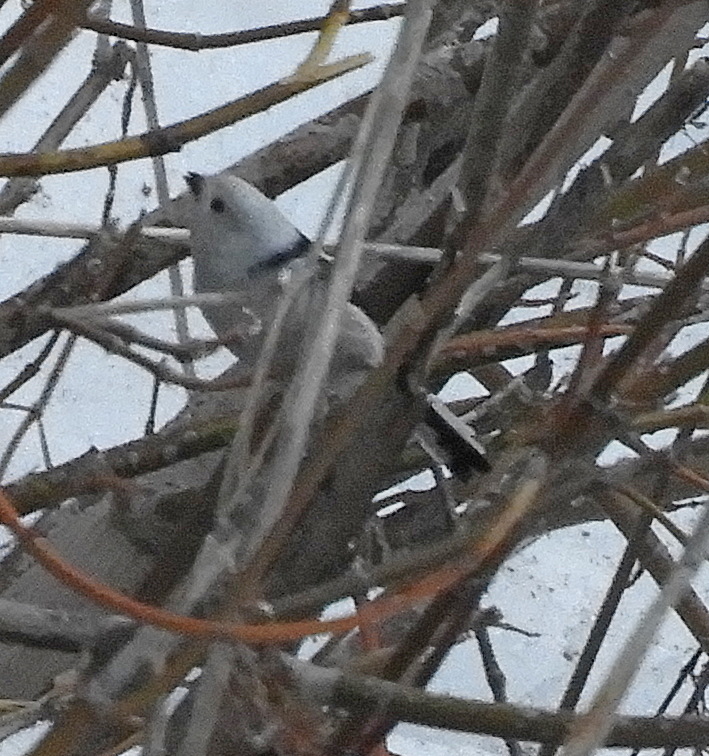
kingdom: Animalia
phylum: Chordata
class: Aves
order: Passeriformes
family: Aegithalidae
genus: Aegithalos
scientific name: Aegithalos caudatus
